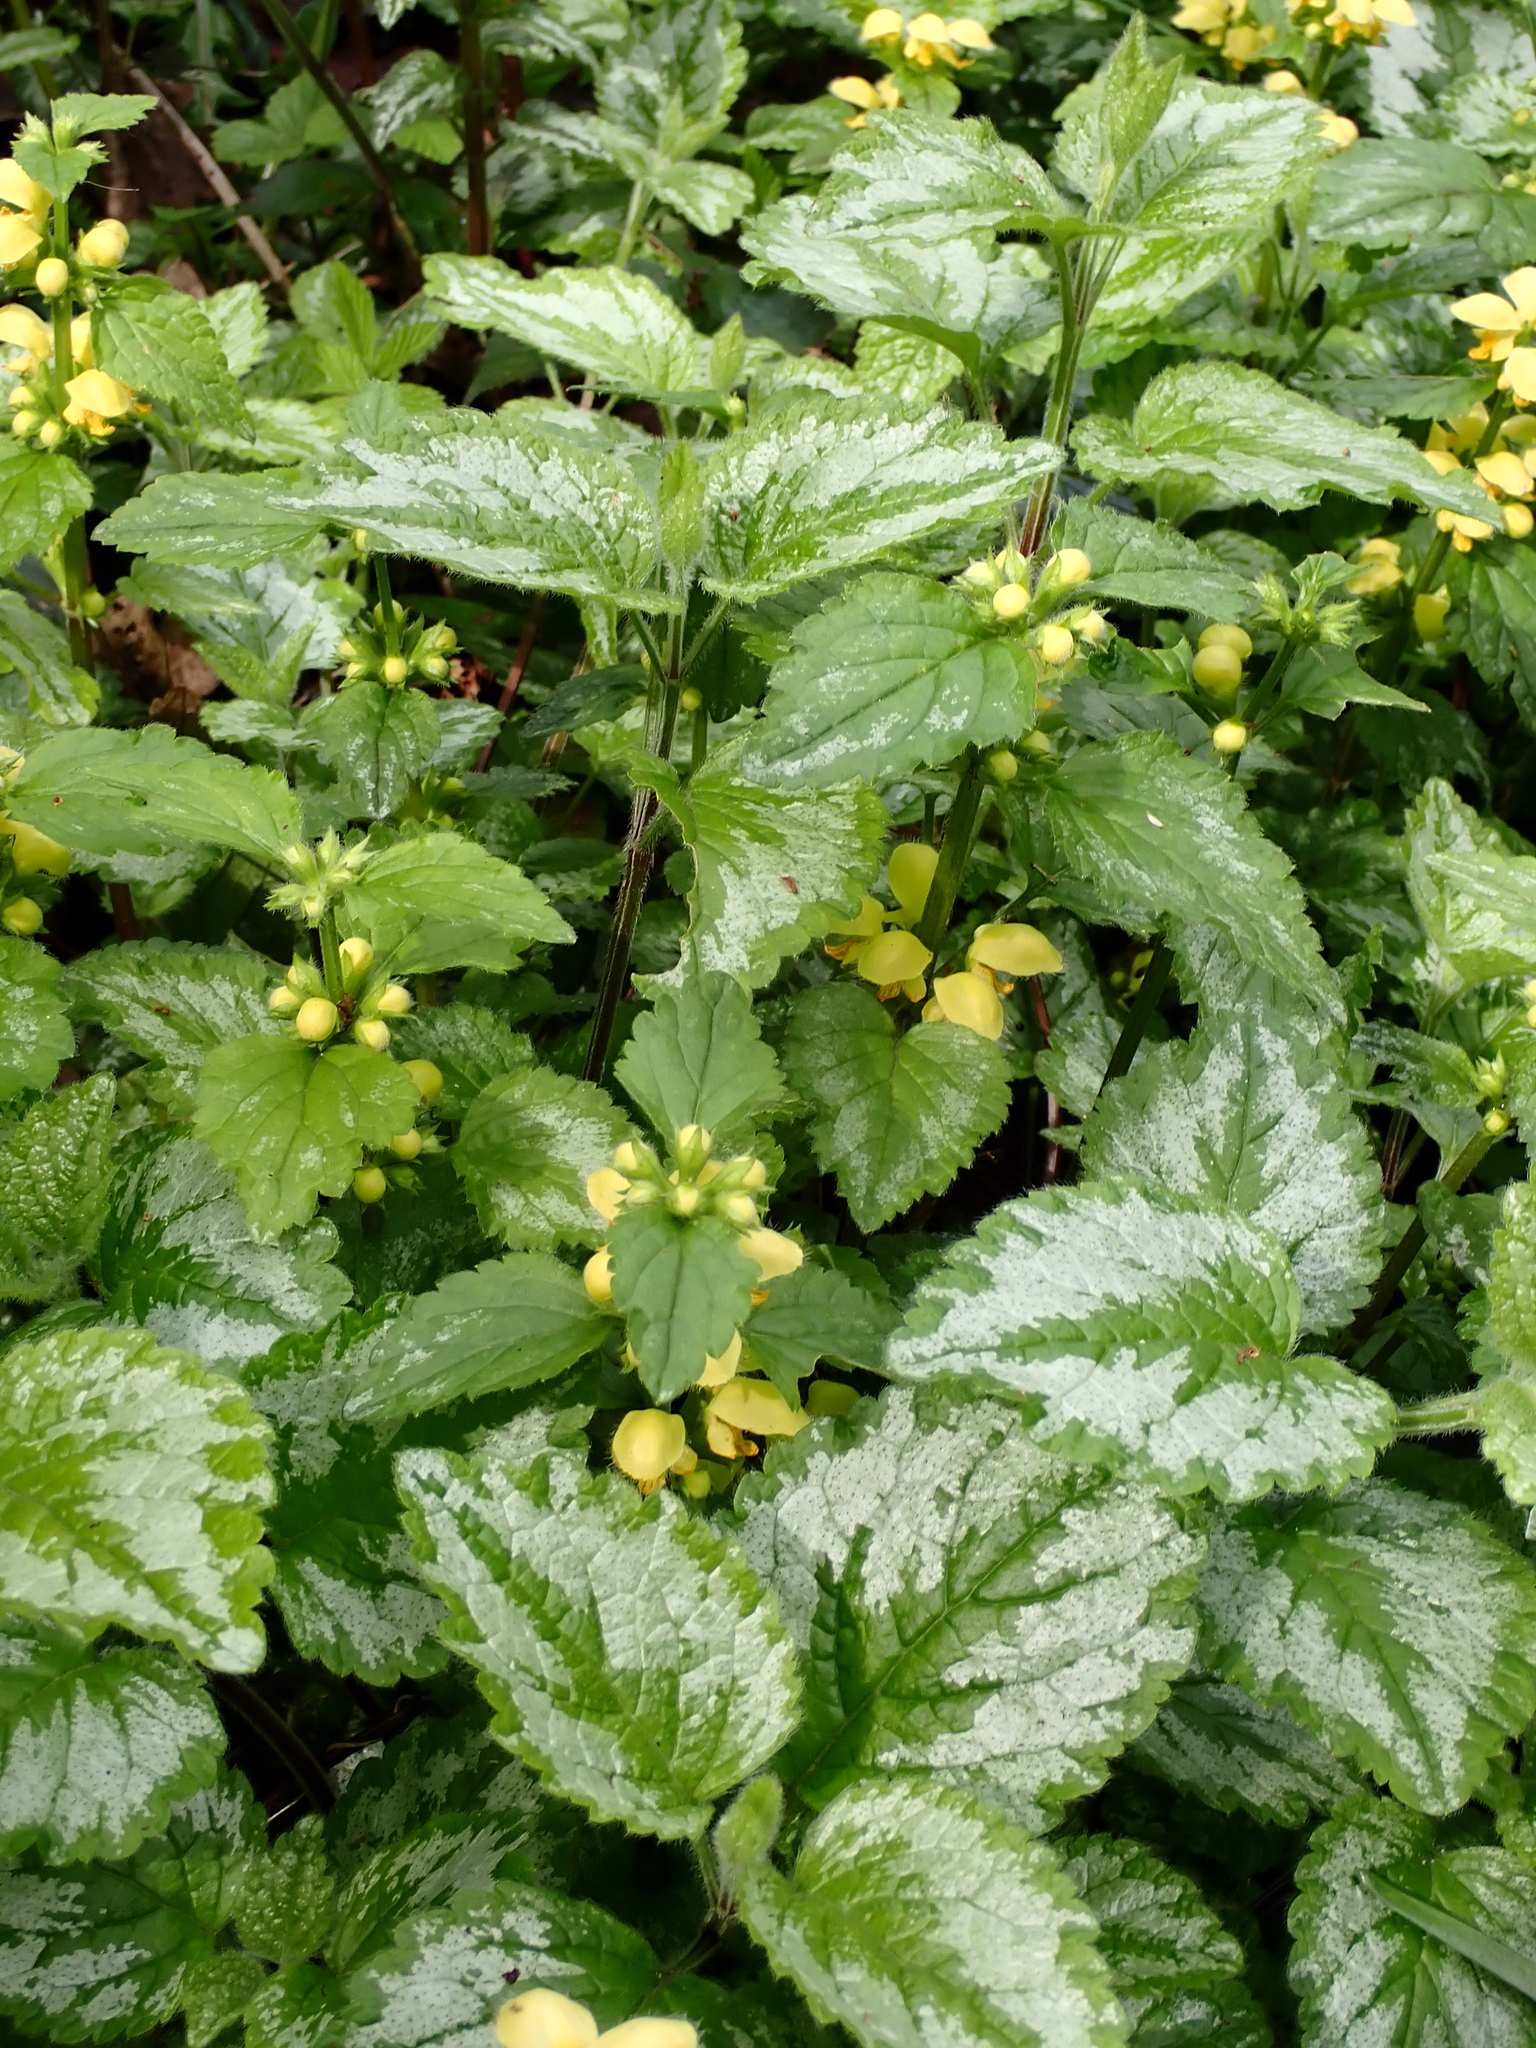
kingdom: Plantae
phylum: Tracheophyta
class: Magnoliopsida
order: Lamiales
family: Lamiaceae
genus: Lamium
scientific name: Lamium galeobdolon
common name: Yellow archangel
